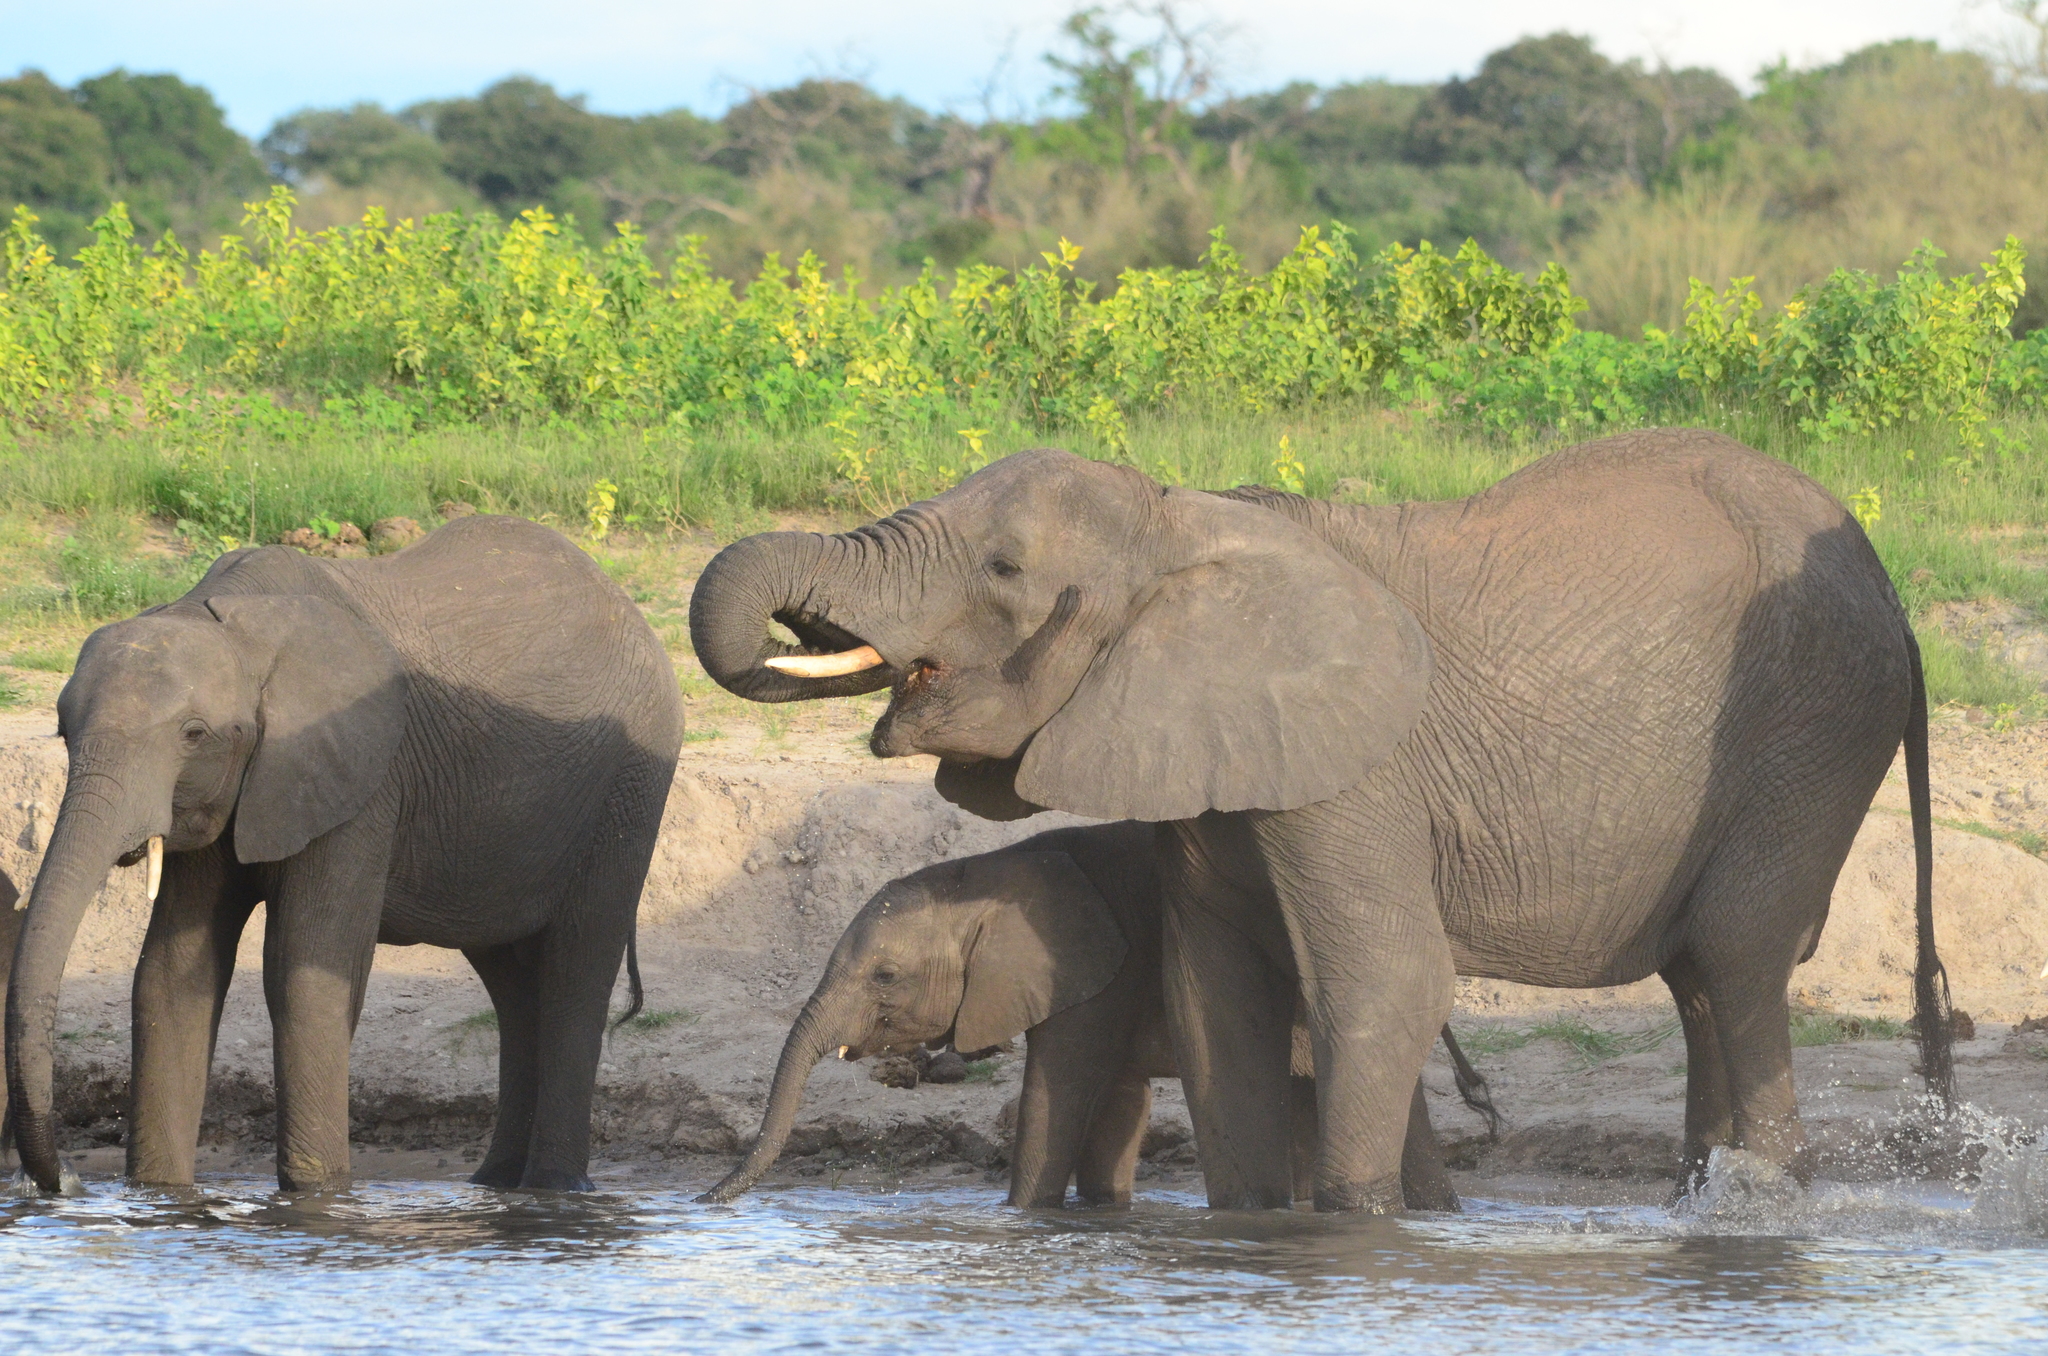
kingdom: Animalia
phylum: Chordata
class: Mammalia
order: Proboscidea
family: Elephantidae
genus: Loxodonta
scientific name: Loxodonta africana
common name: African elephant
